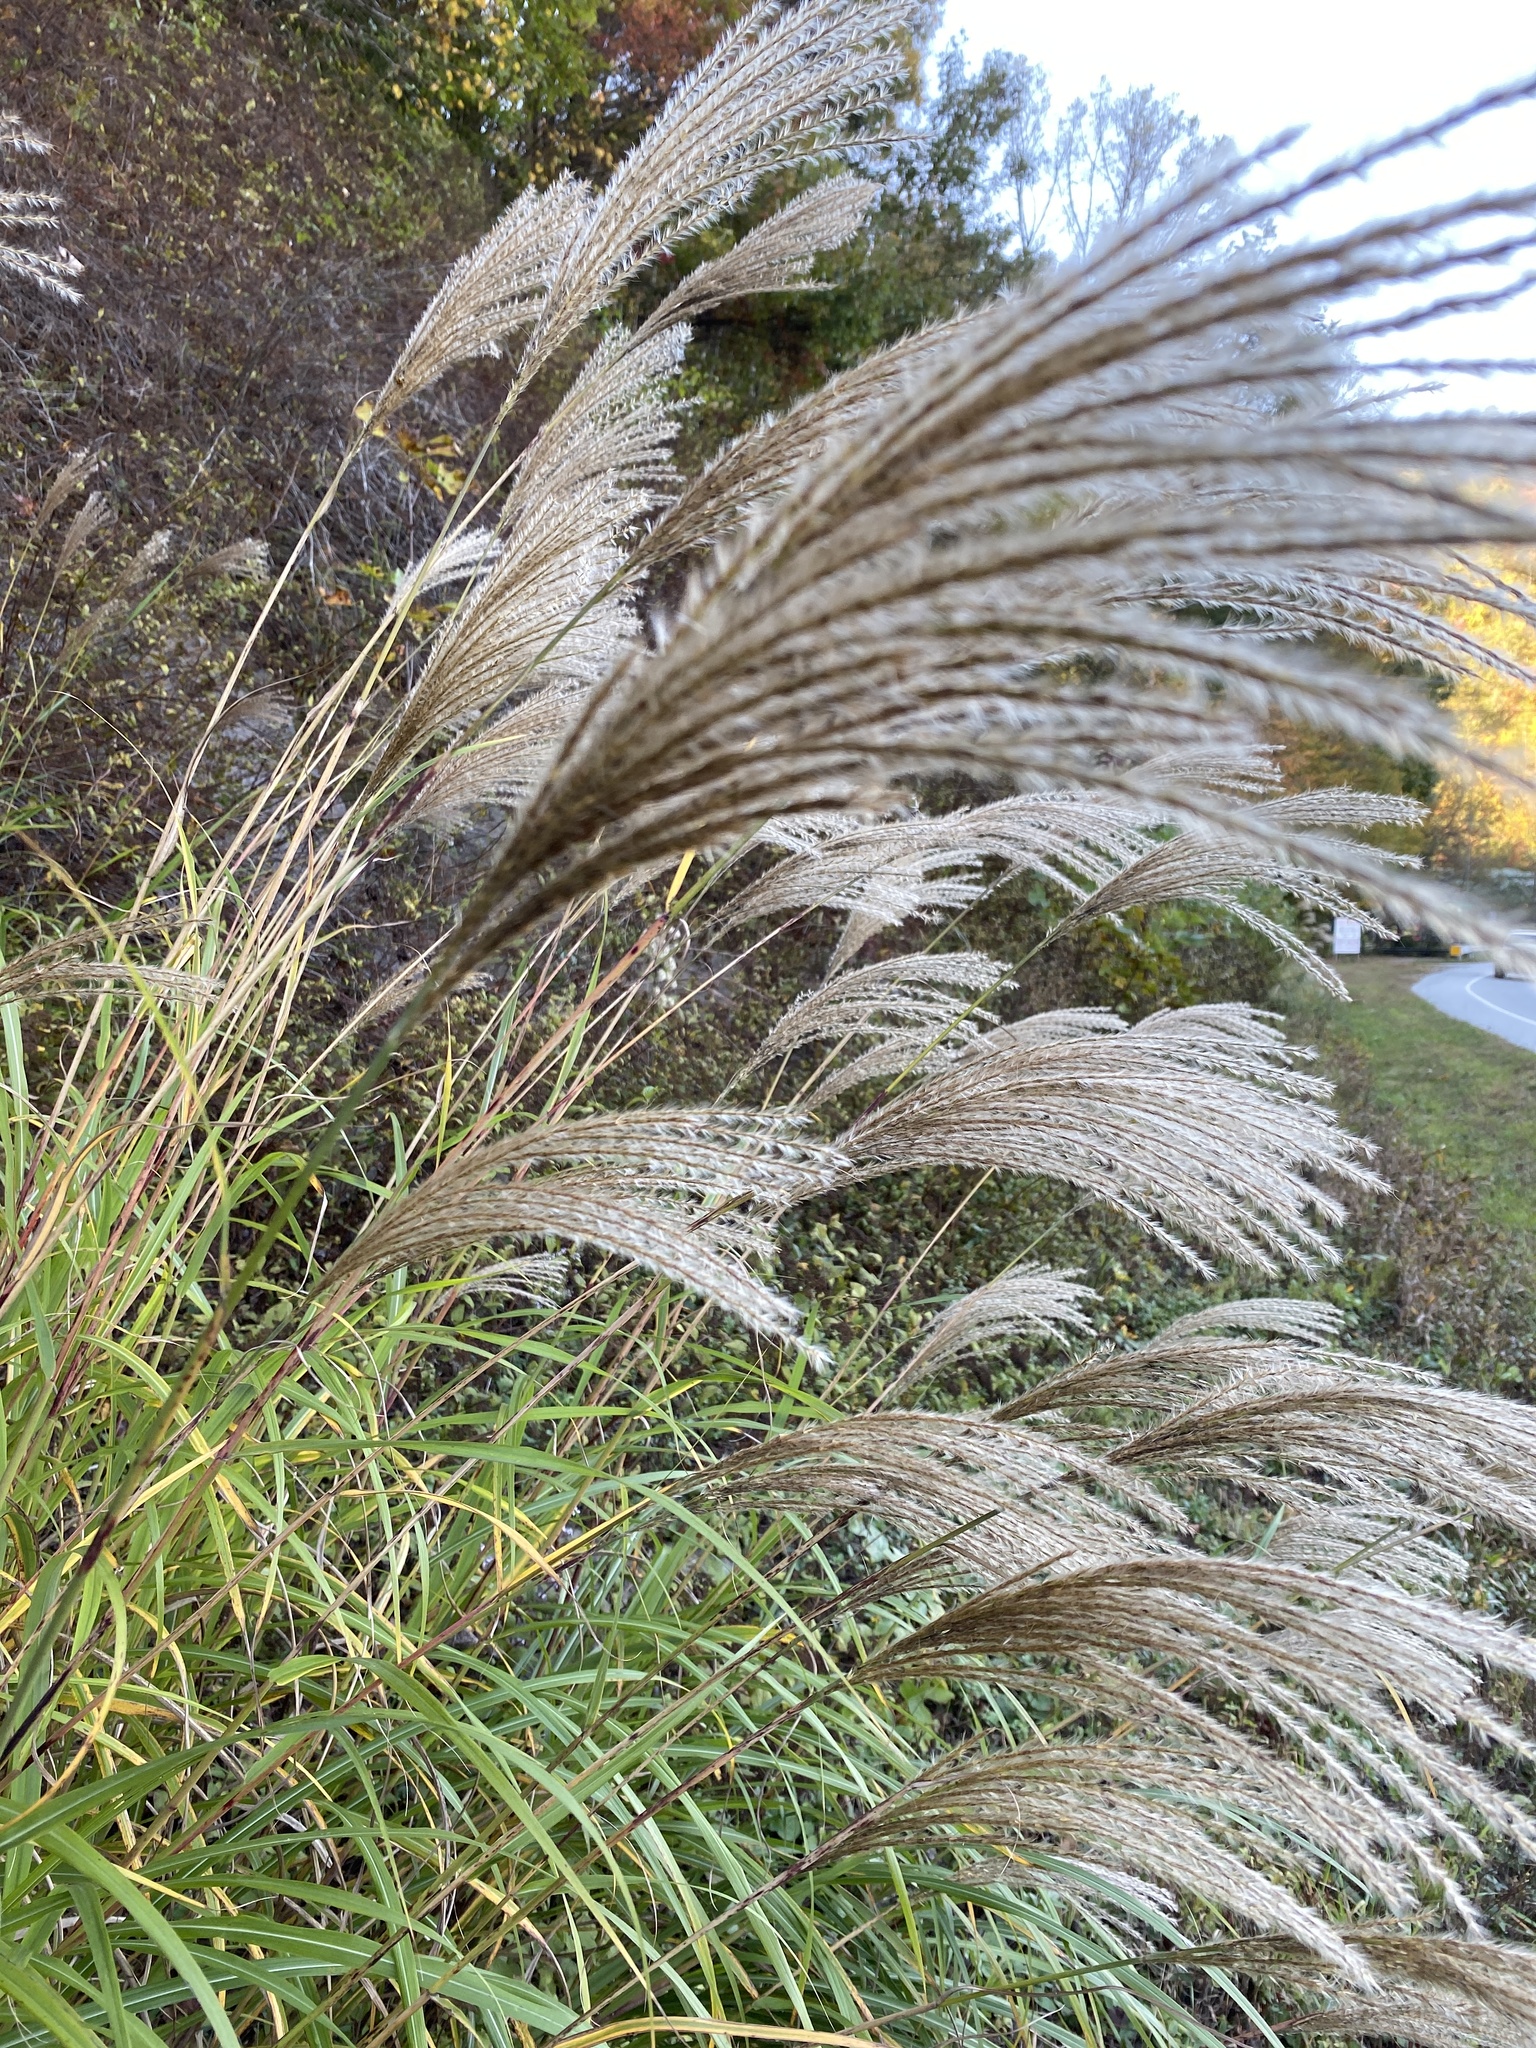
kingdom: Plantae
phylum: Tracheophyta
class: Liliopsida
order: Poales
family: Poaceae
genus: Miscanthus
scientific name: Miscanthus sinensis
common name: Chinese silvergrass
